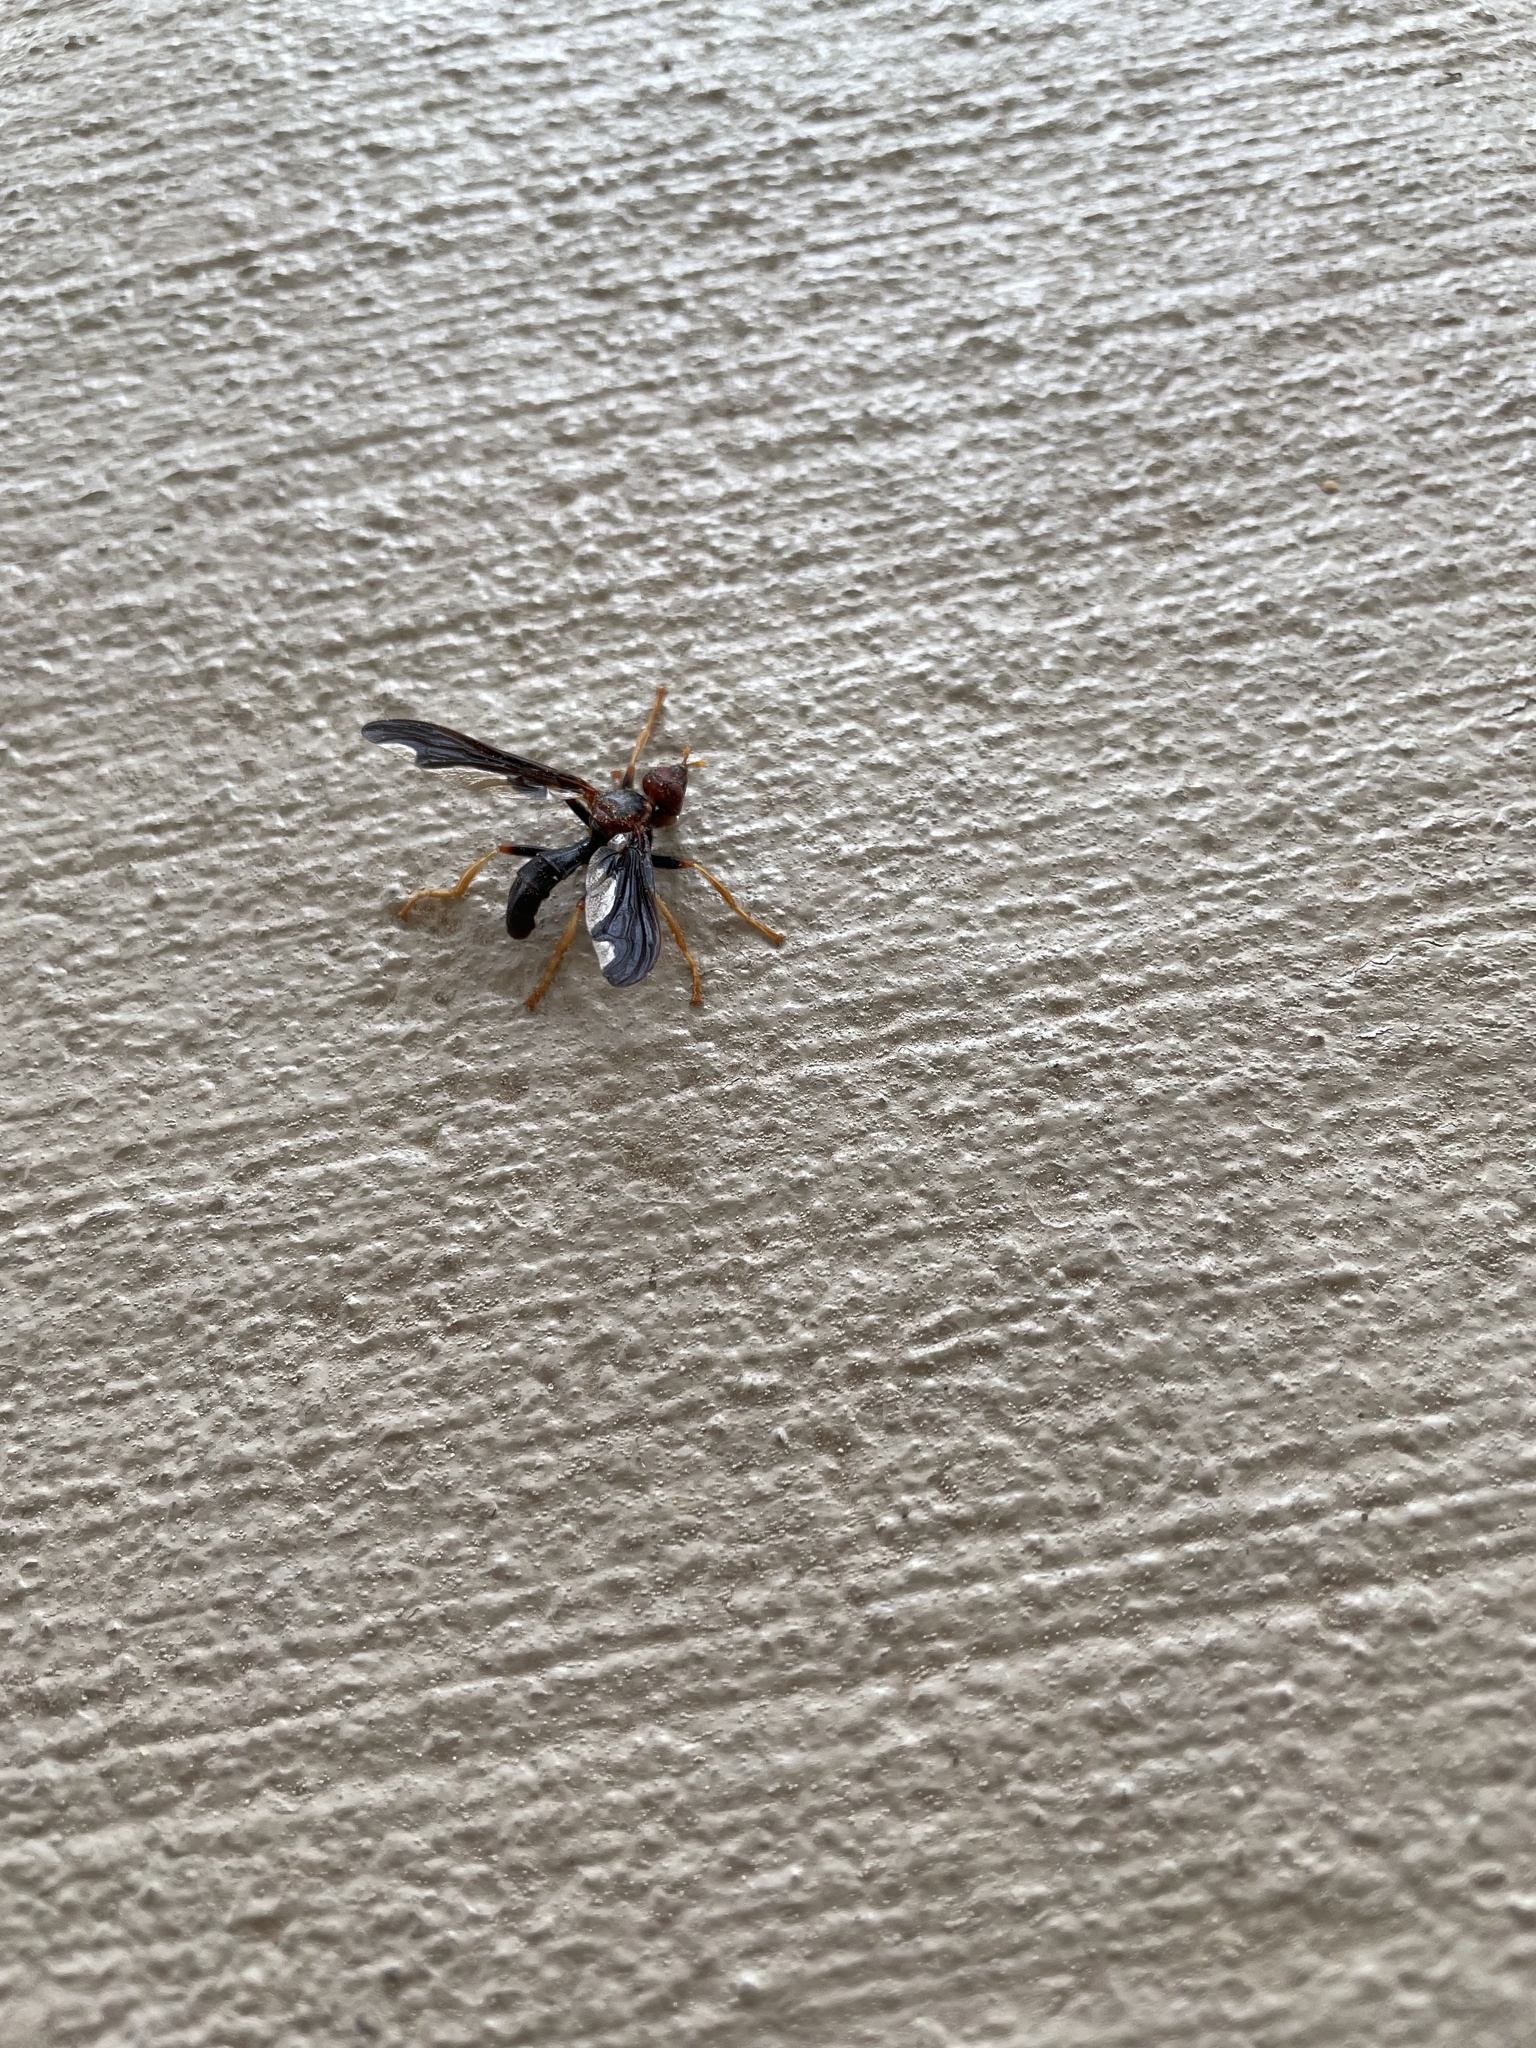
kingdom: Animalia
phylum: Arthropoda
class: Insecta
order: Diptera
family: Pyrgotidae
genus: Pyrgota
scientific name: Pyrgota undata
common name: Waved light fly
